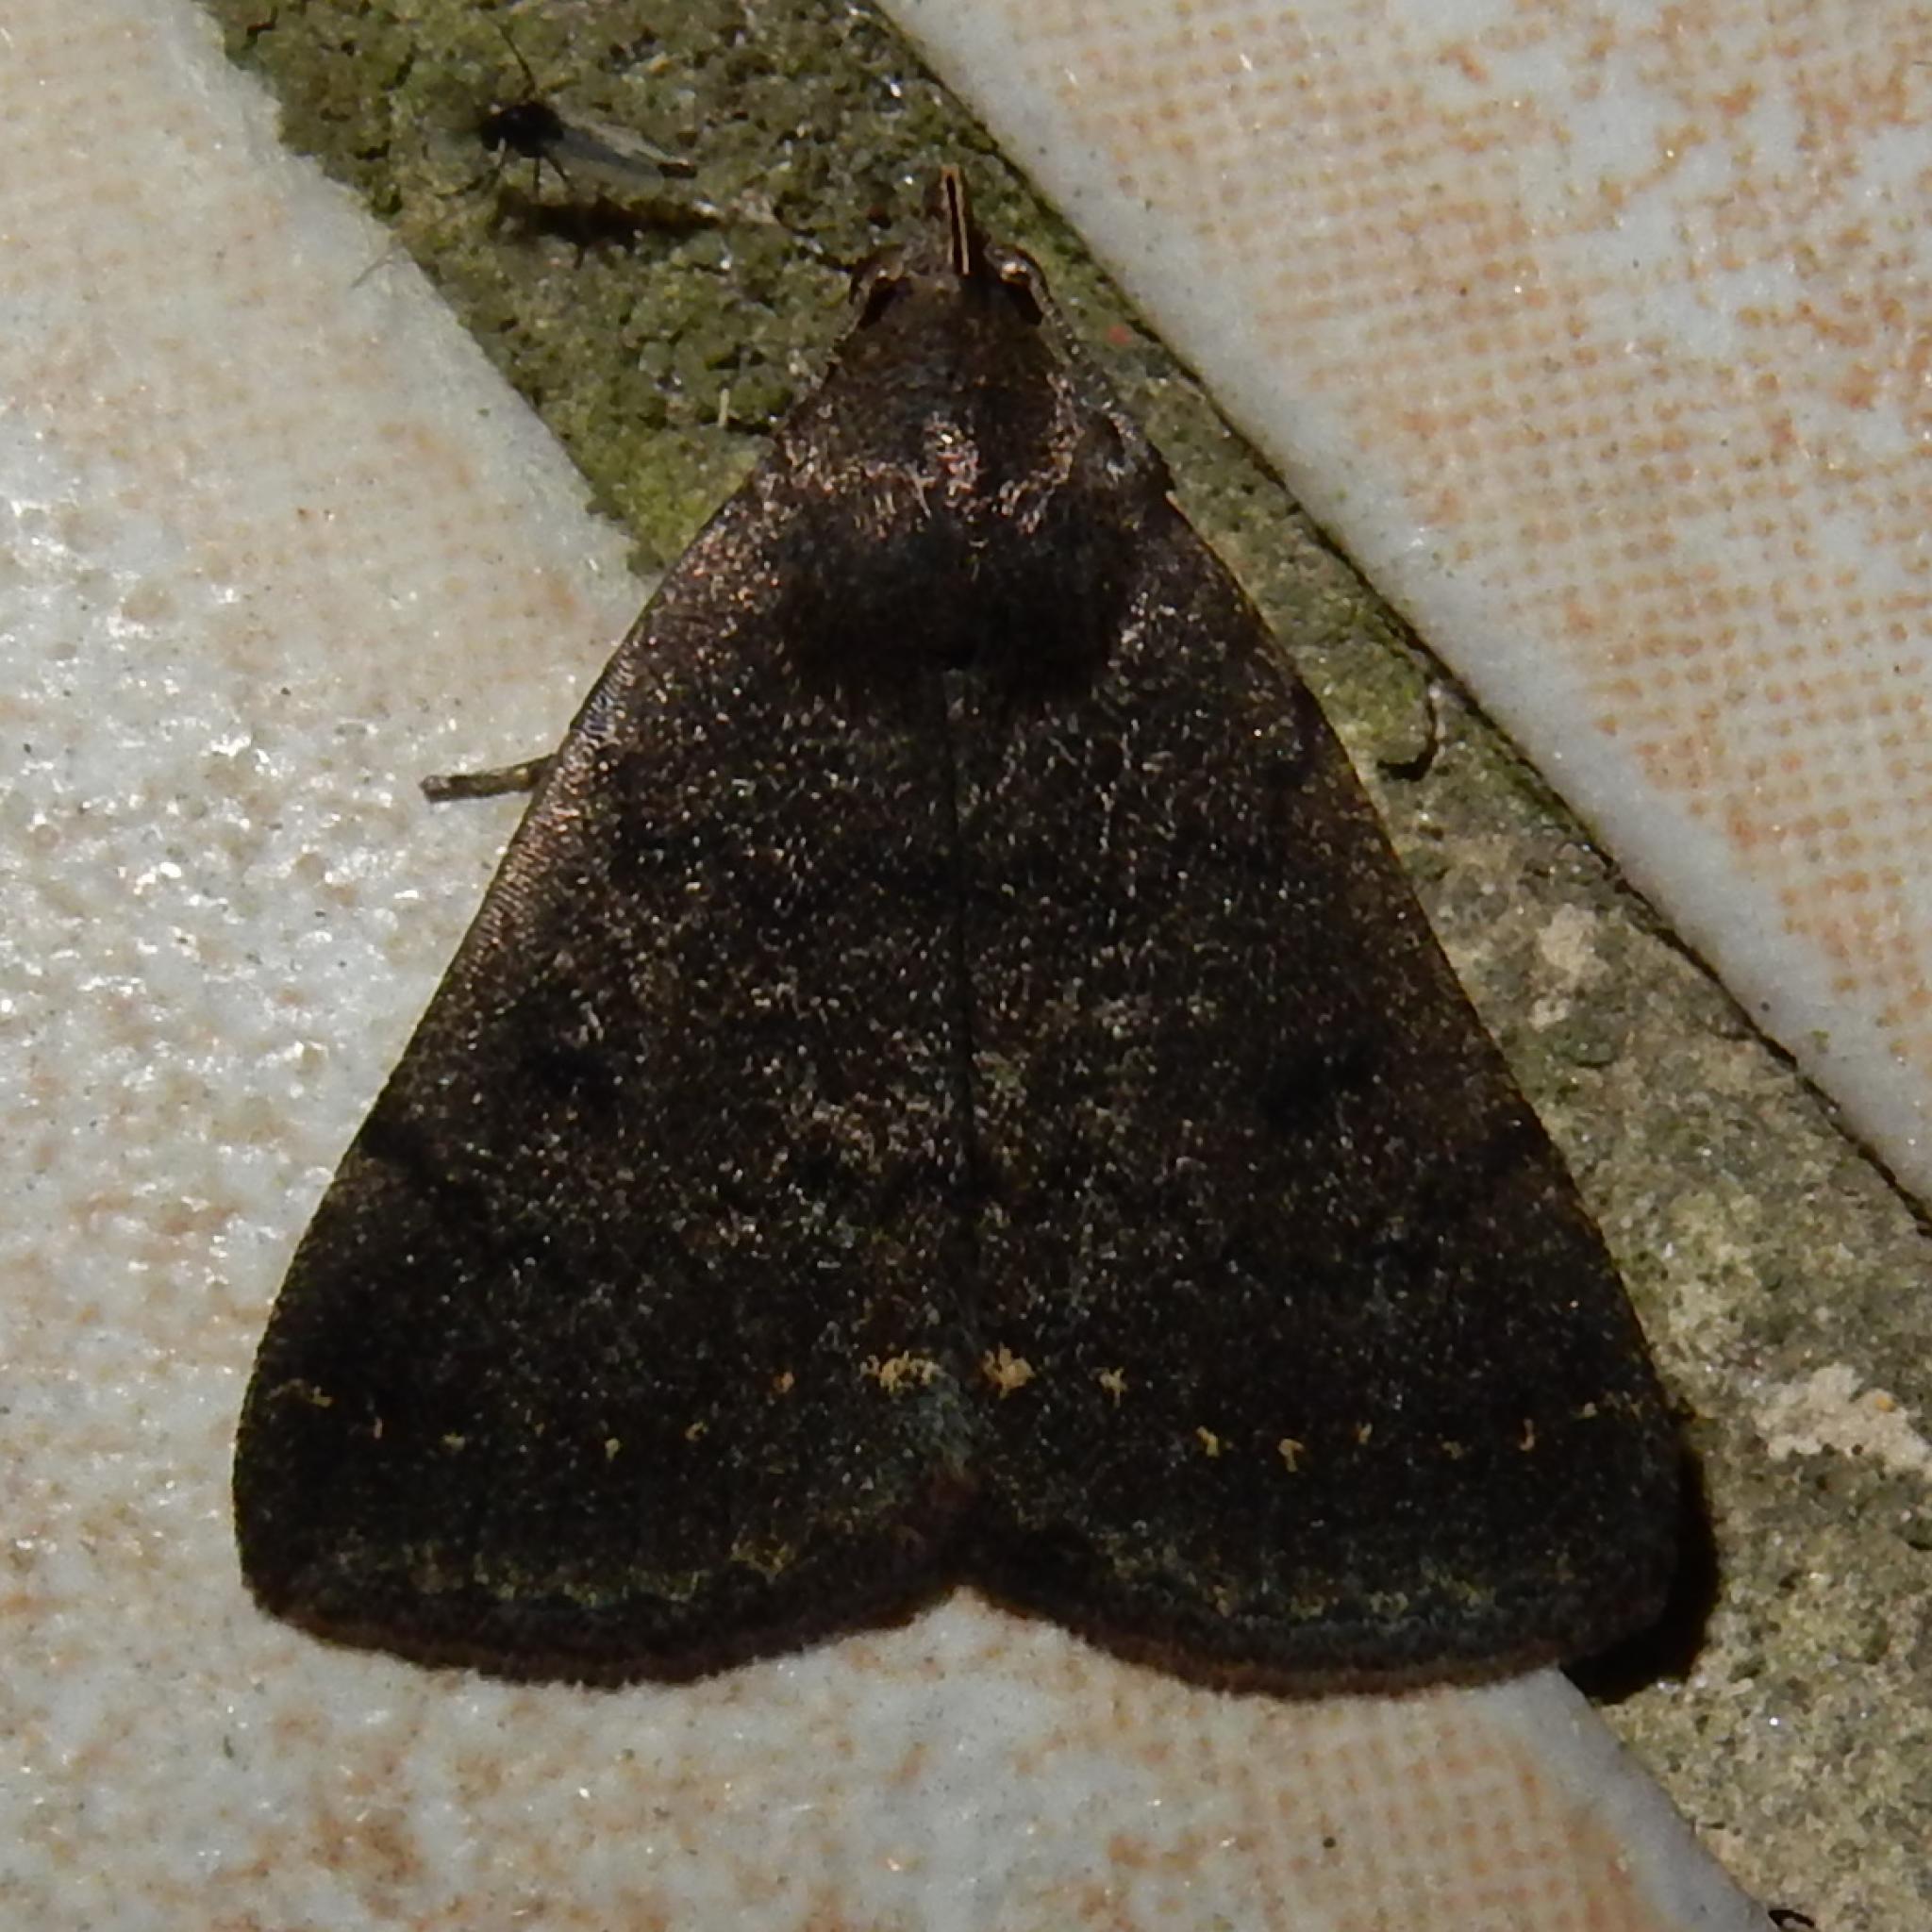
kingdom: Animalia
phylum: Arthropoda
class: Insecta
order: Lepidoptera
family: Erebidae
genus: Nodaria
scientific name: Nodaria nodosalis
